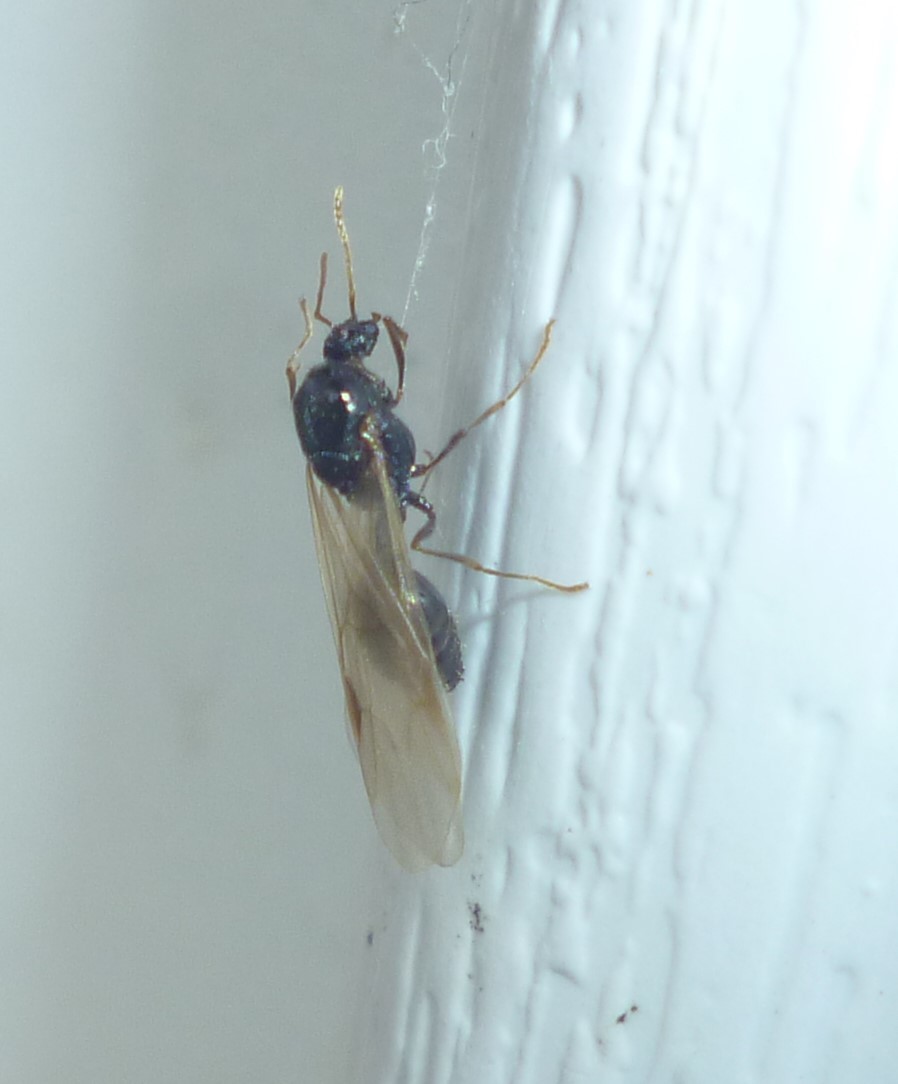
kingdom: Animalia
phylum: Arthropoda
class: Insecta
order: Hymenoptera
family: Formicidae
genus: Tetramorium
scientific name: Tetramorium immigrans
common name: Pavement ant
